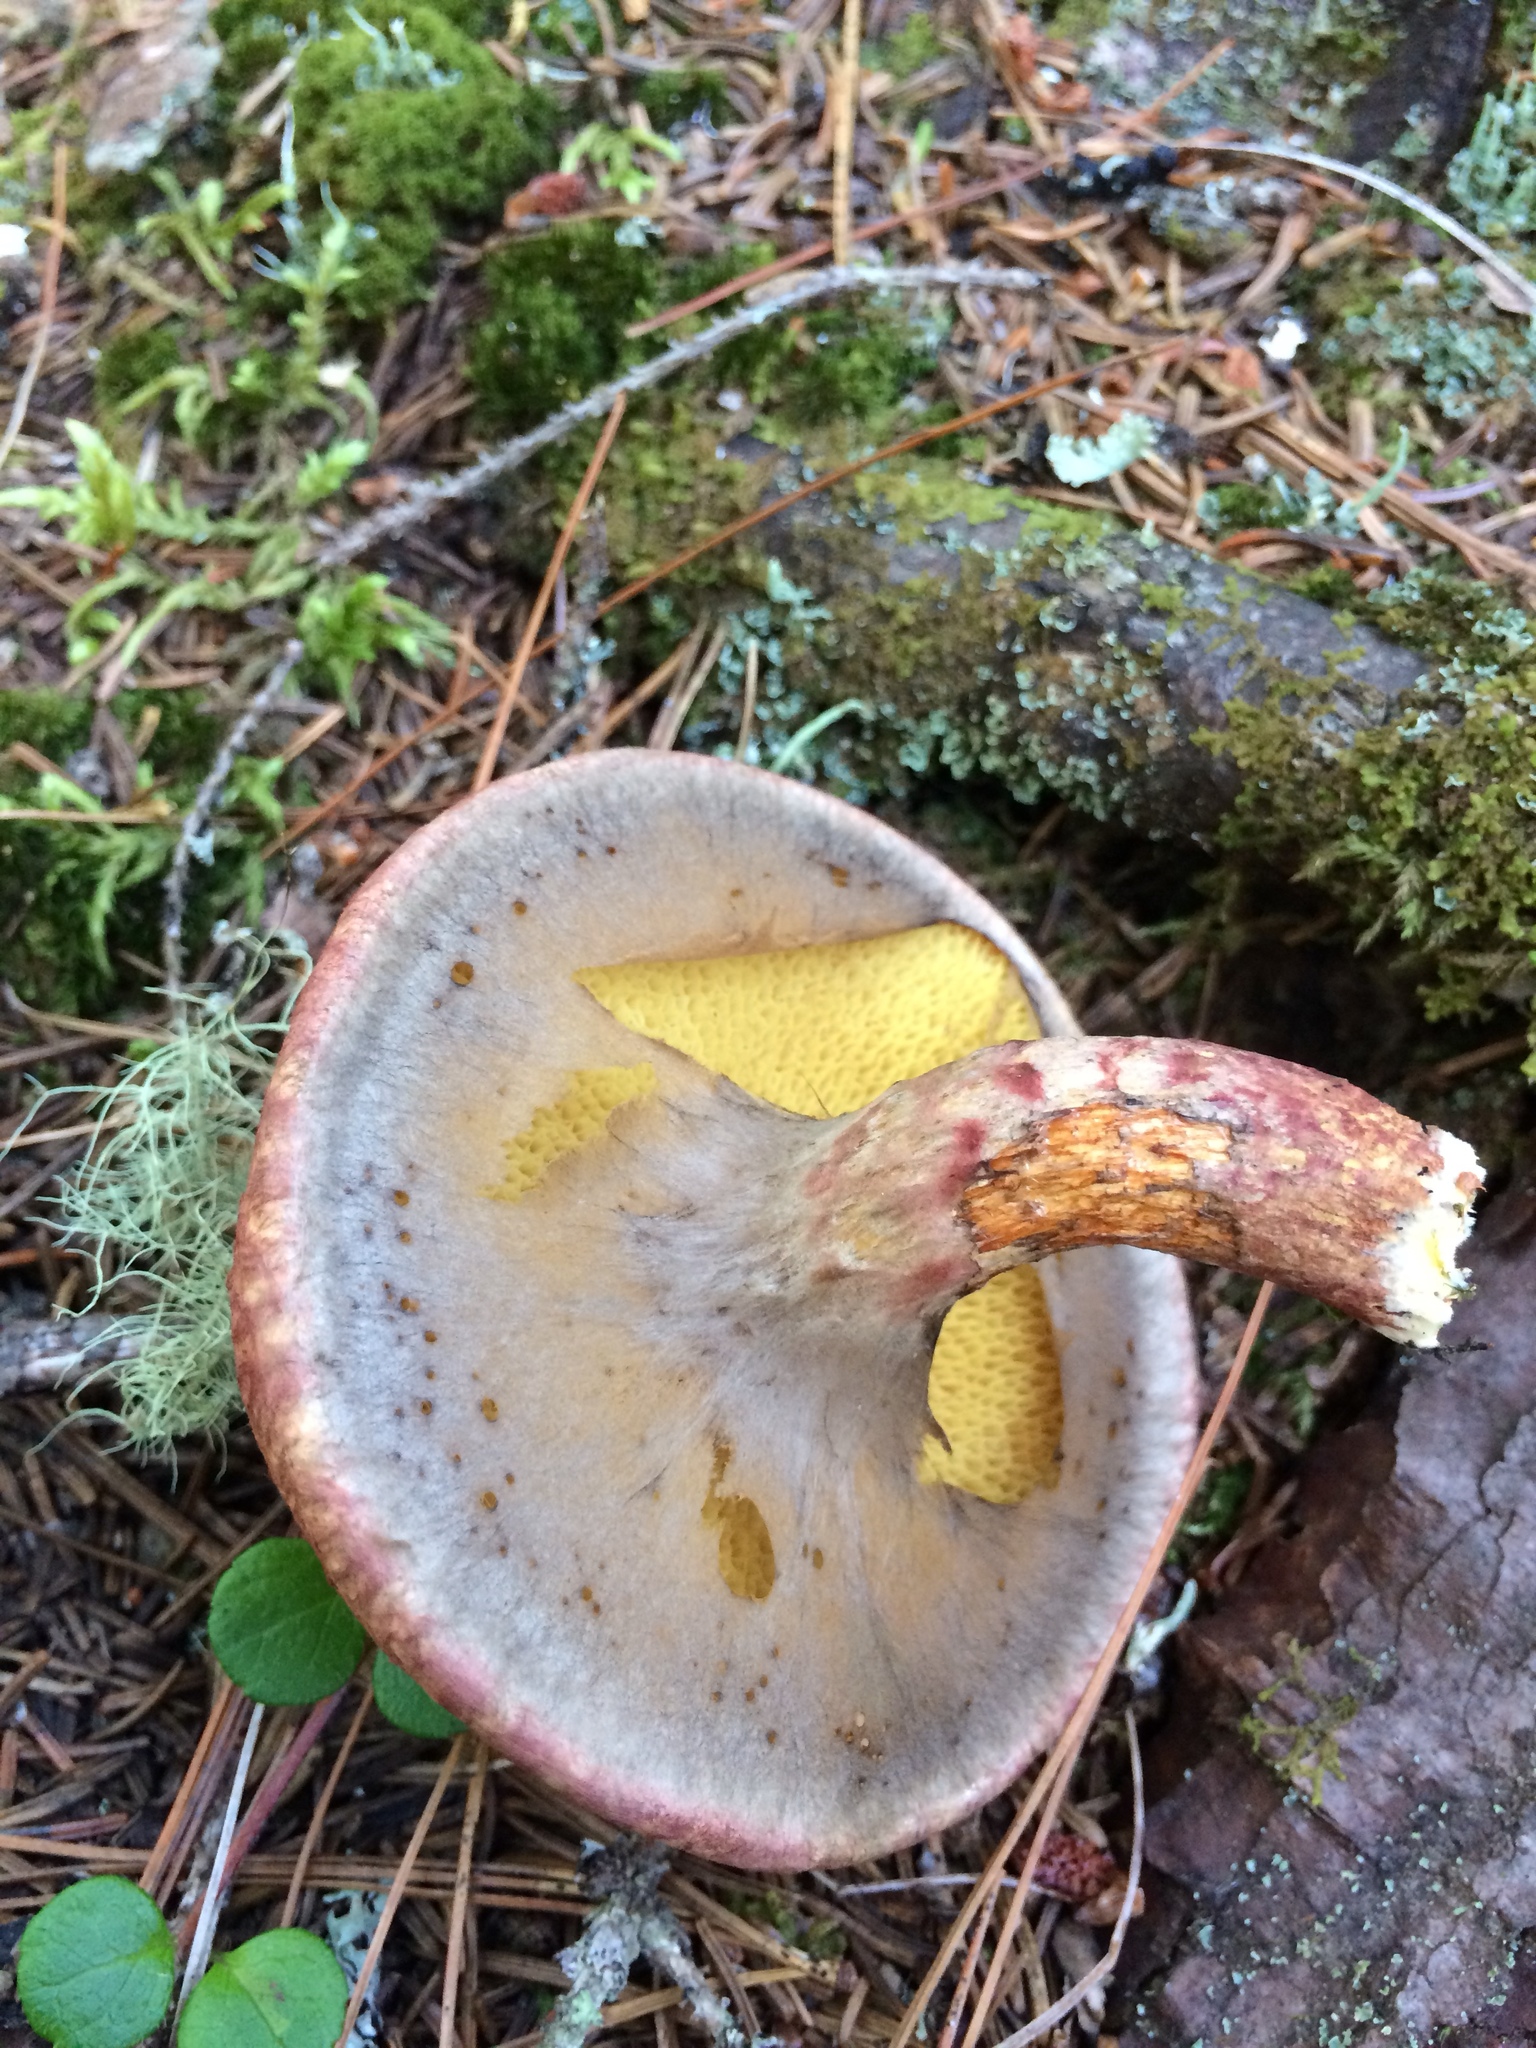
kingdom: Fungi
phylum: Basidiomycota
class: Agaricomycetes
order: Boletales
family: Suillaceae
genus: Suillus
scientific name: Suillus spraguei
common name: Painted suillus
